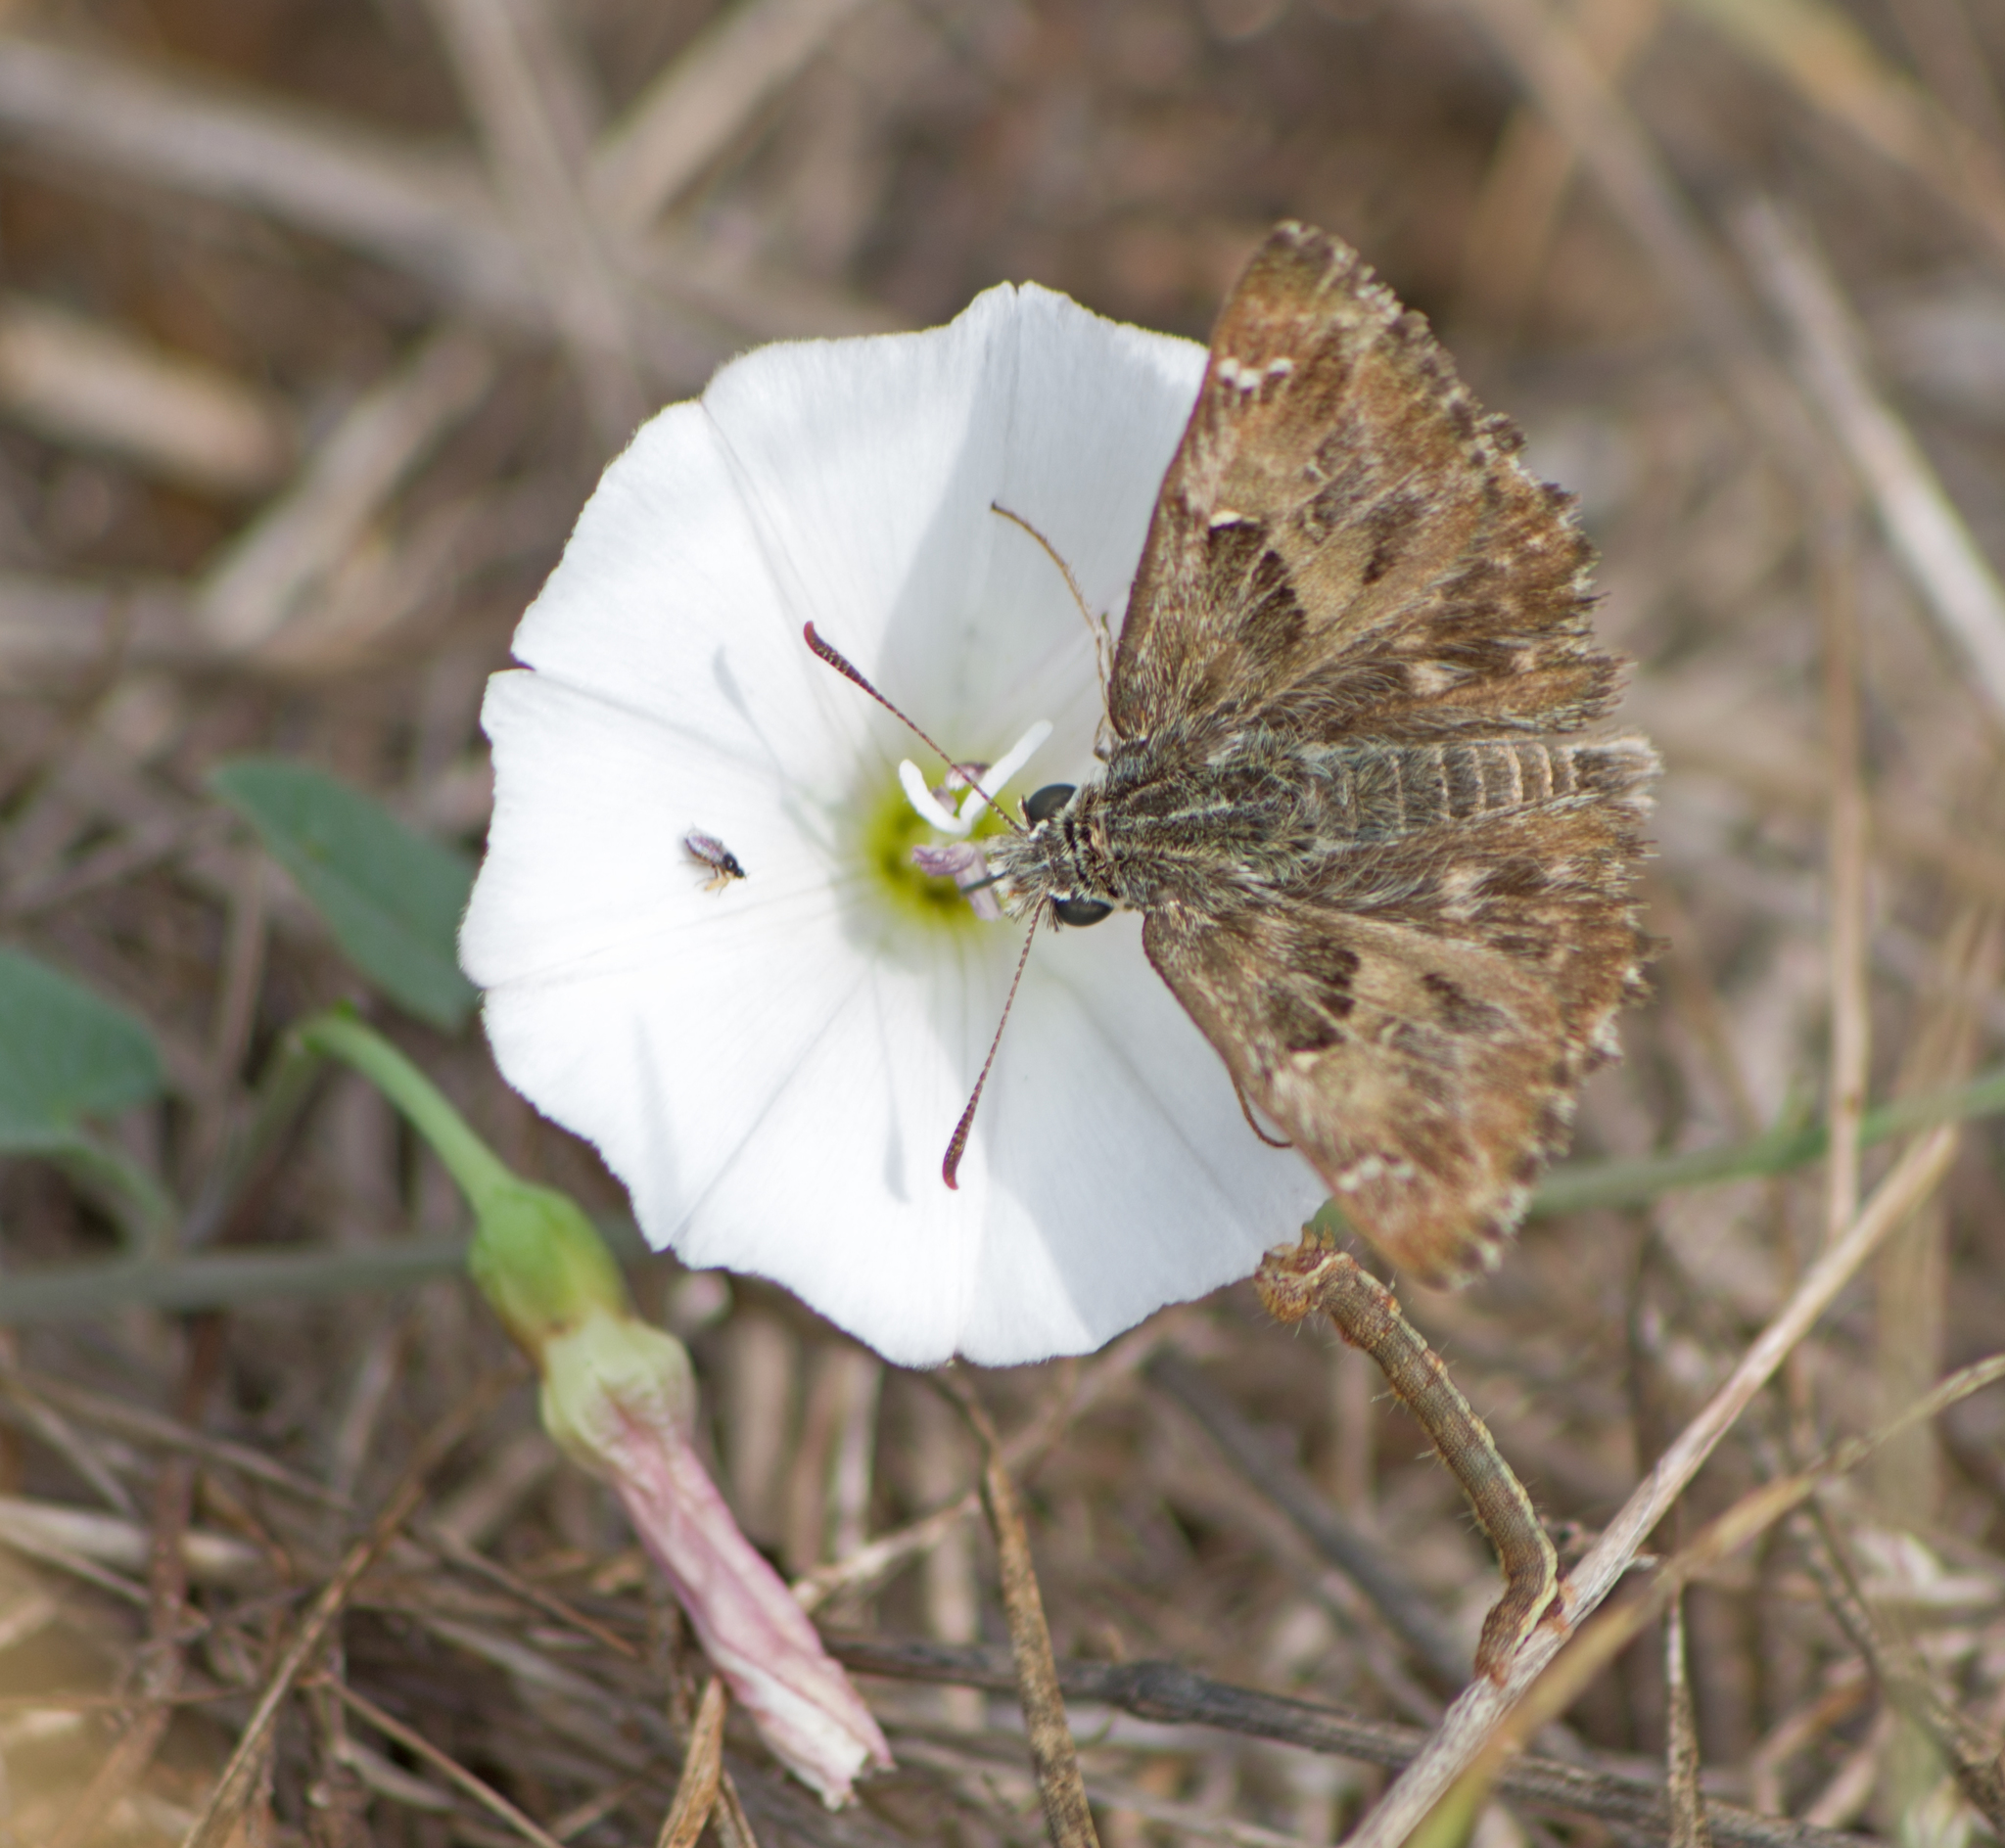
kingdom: Animalia
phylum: Arthropoda
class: Insecta
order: Lepidoptera
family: Hesperiidae
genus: Carcharodus
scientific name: Carcharodus alceae
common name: Mallow skipper
